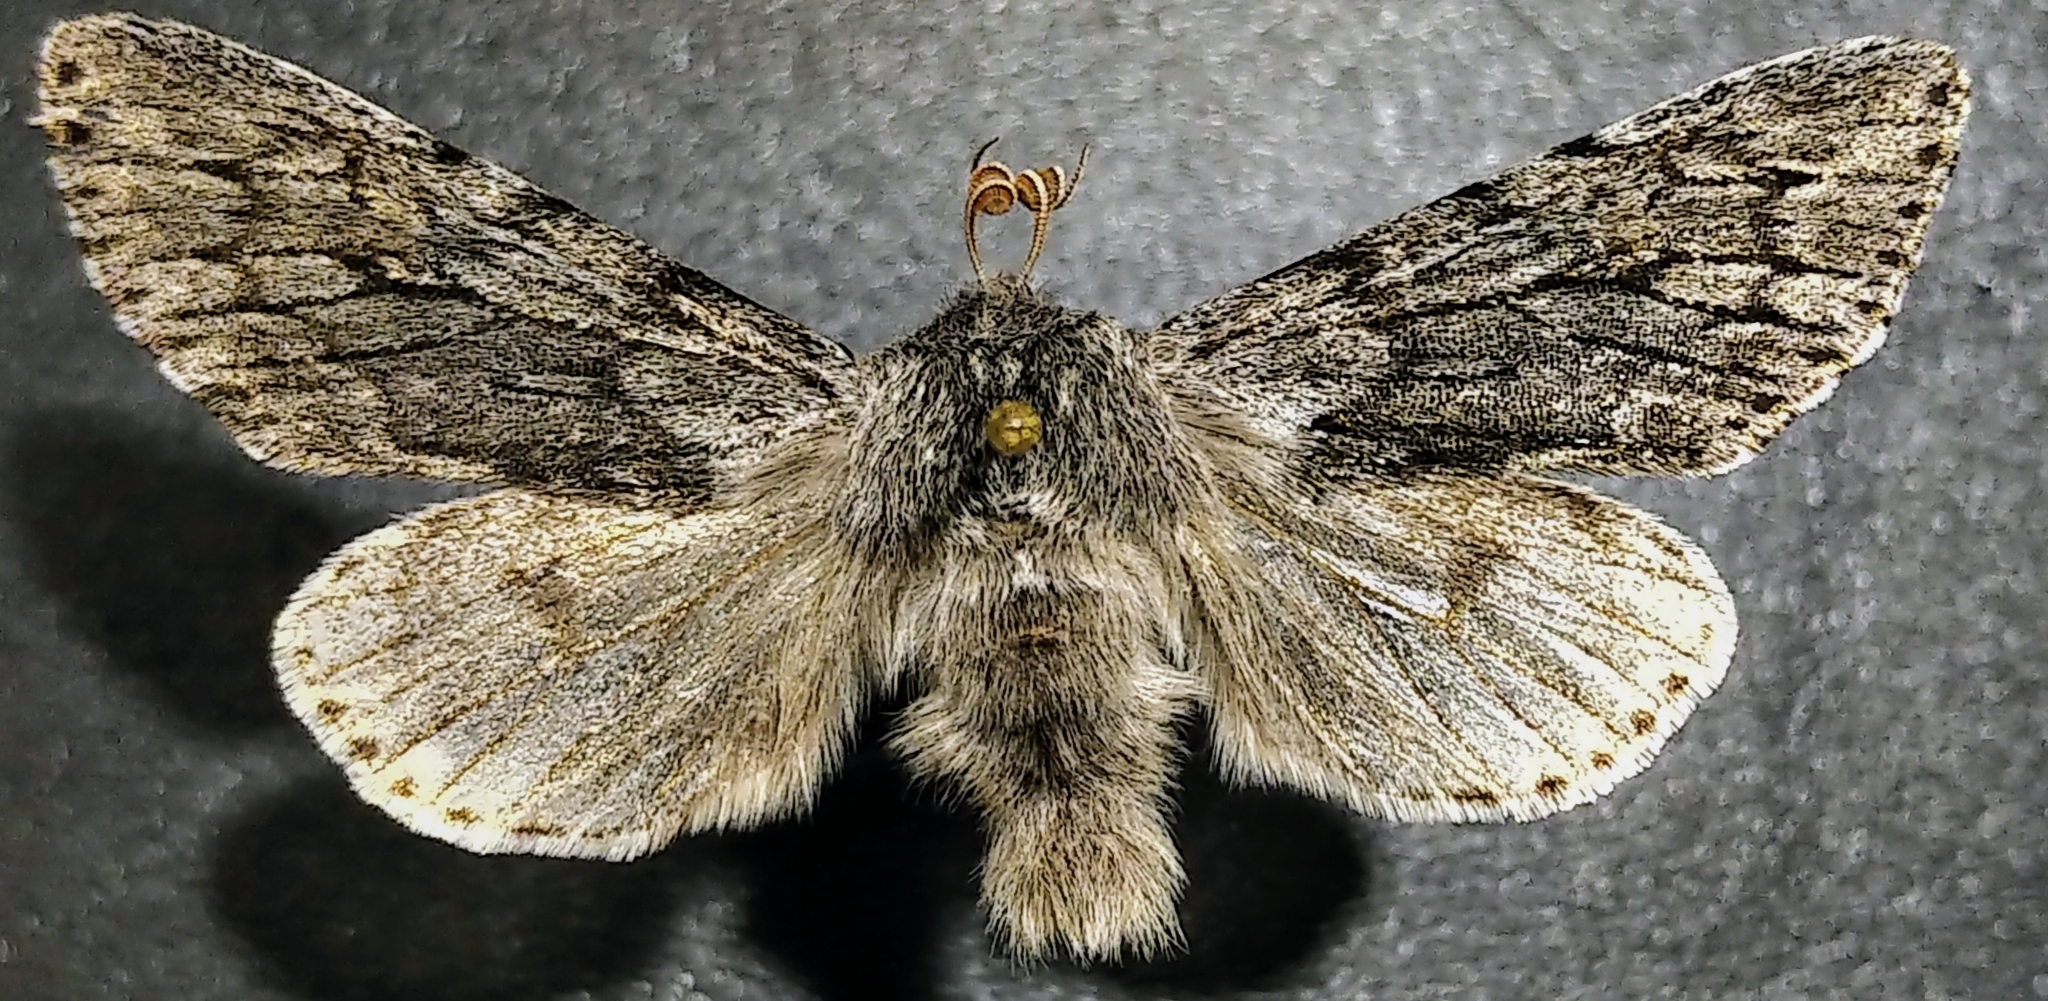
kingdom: Animalia
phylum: Arthropoda
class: Insecta
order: Lepidoptera
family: Noctuidae
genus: Brachionycha
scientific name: Brachionycha borealis
